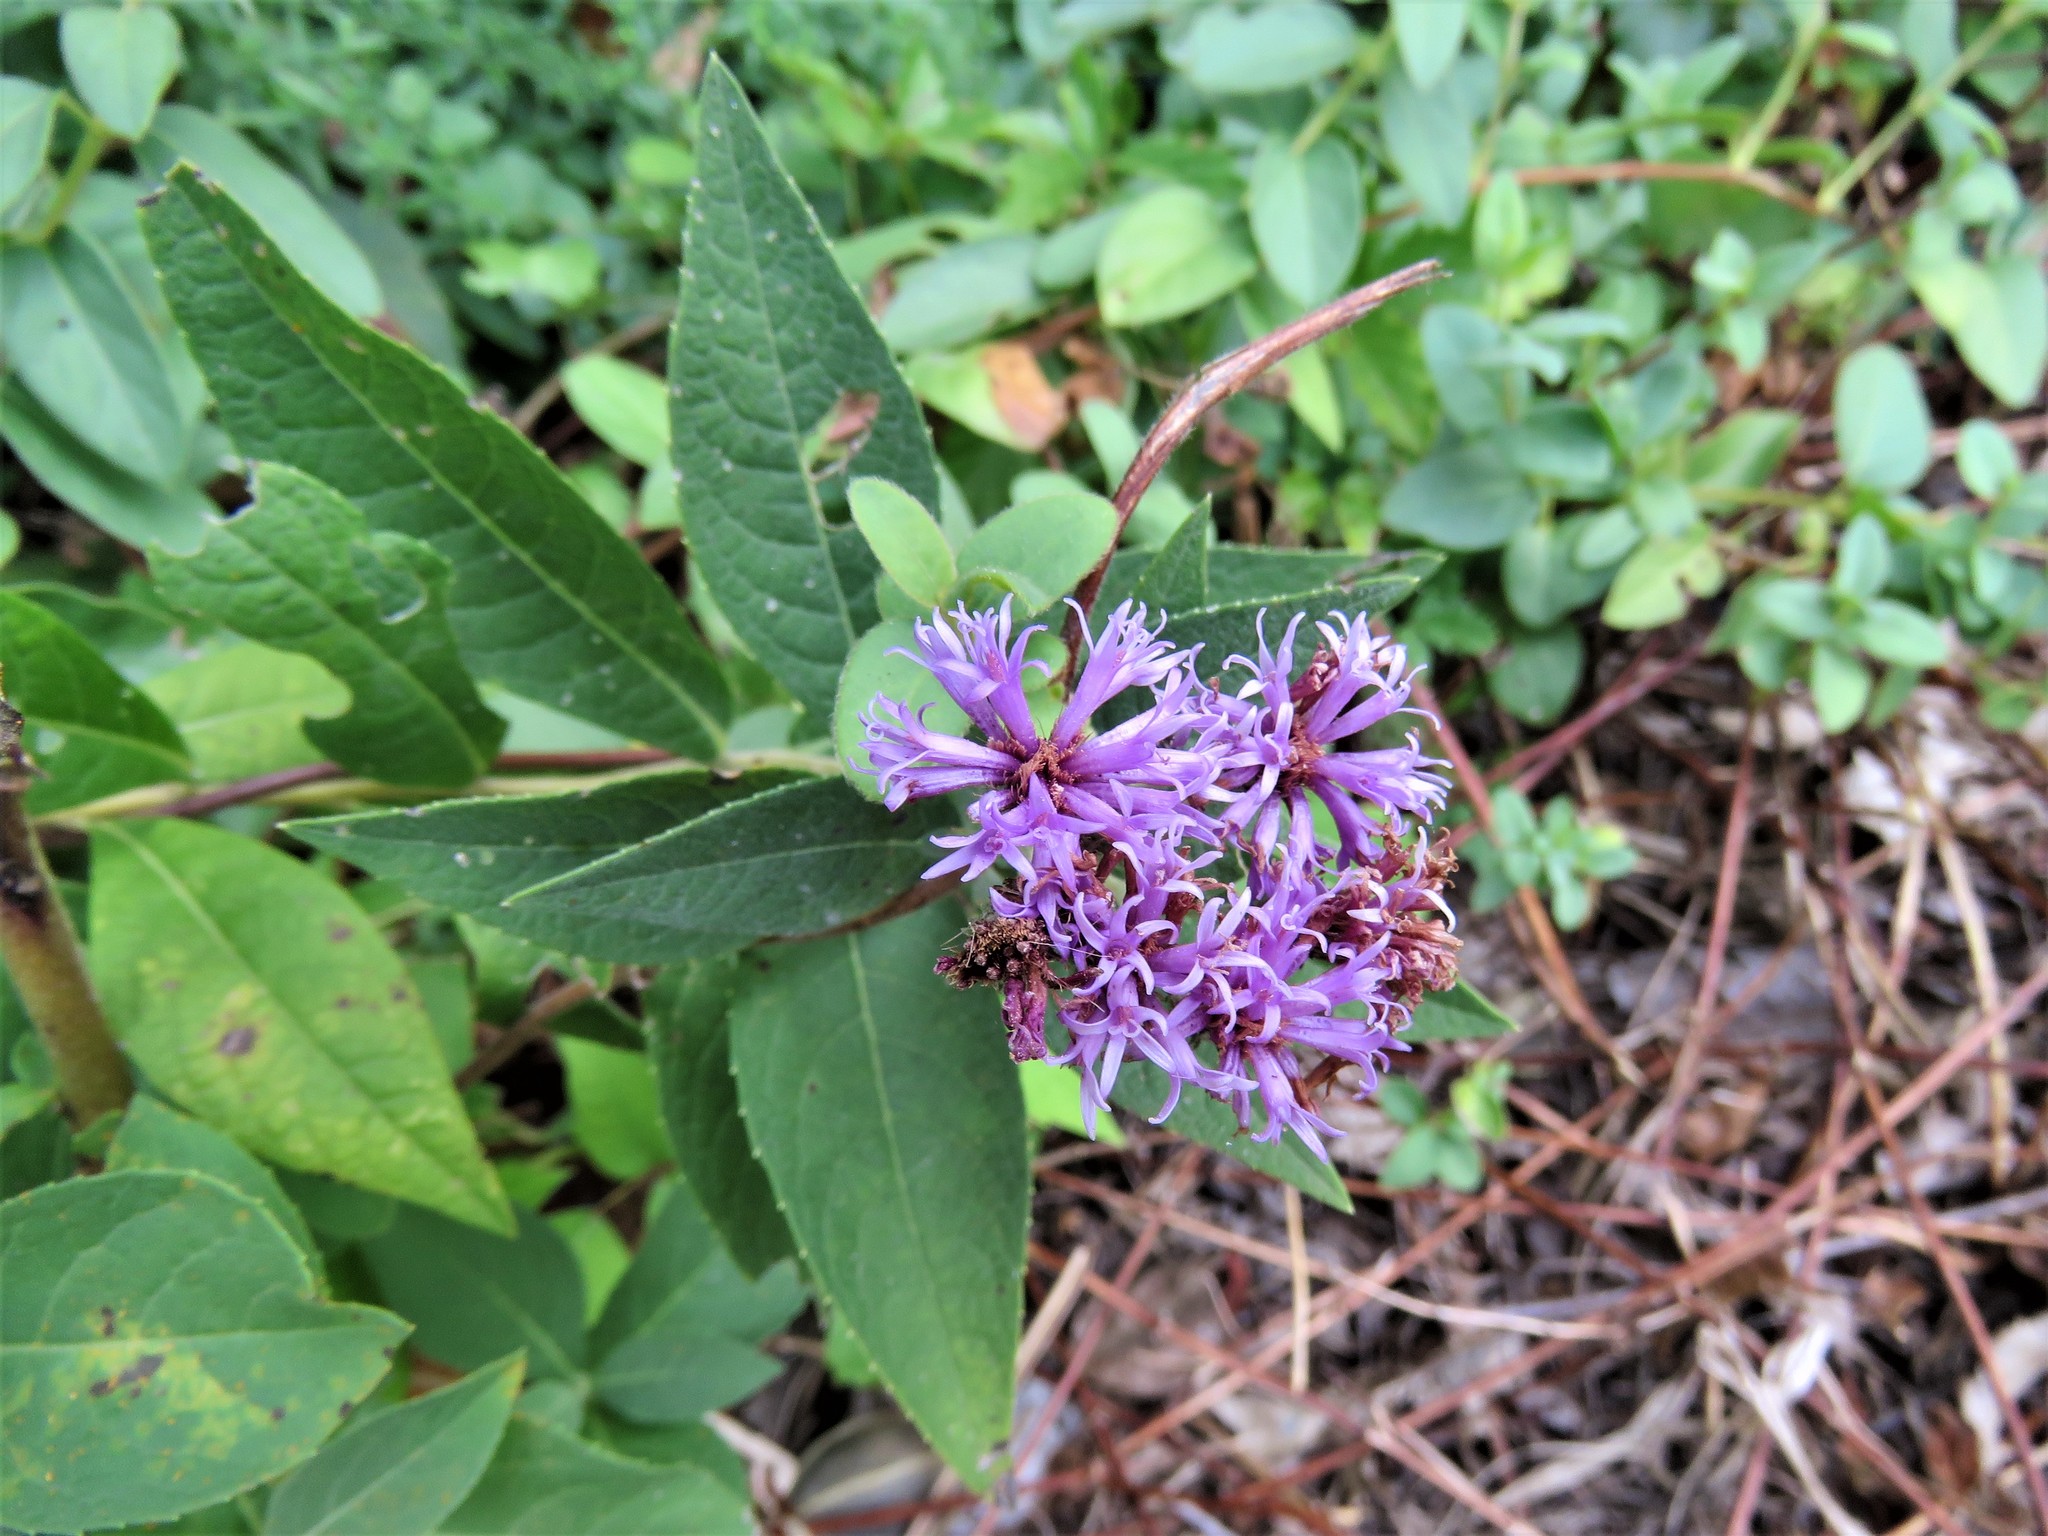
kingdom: Plantae
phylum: Tracheophyta
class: Magnoliopsida
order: Asterales
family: Asteraceae
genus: Vernonia
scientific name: Vernonia baldwinii
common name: Western ironweed
